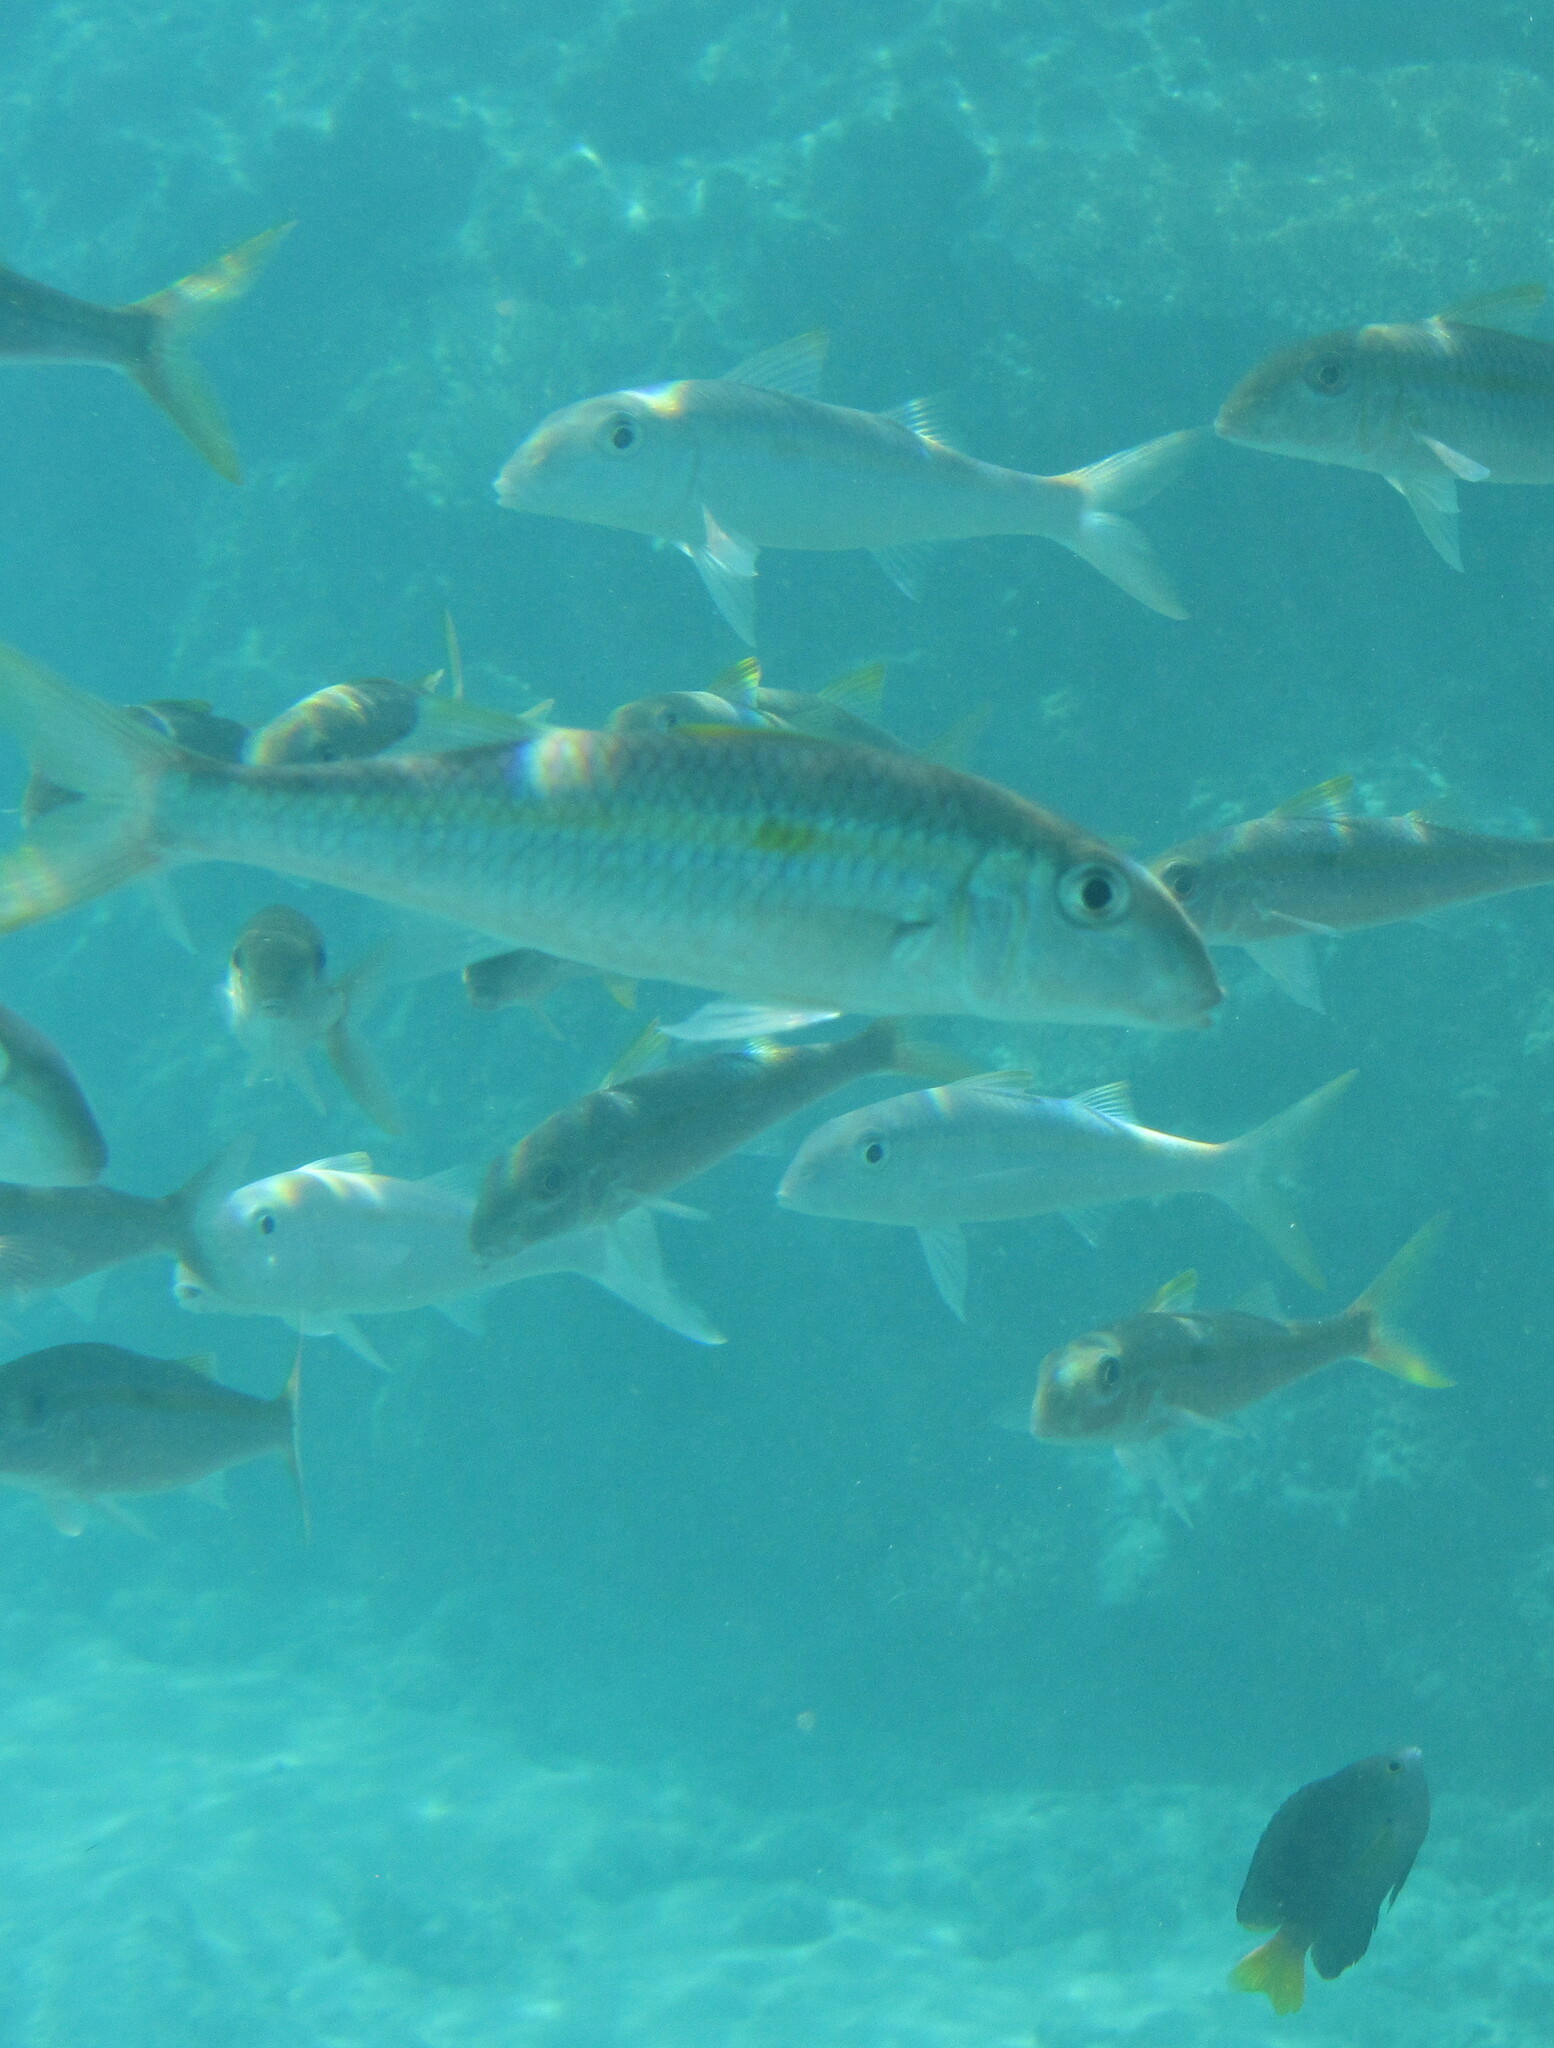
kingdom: Animalia
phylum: Chordata
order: Perciformes
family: Mullidae
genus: Mulloidichthys
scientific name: Mulloidichthys flavolineatus
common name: Yellowstripe goatfish
